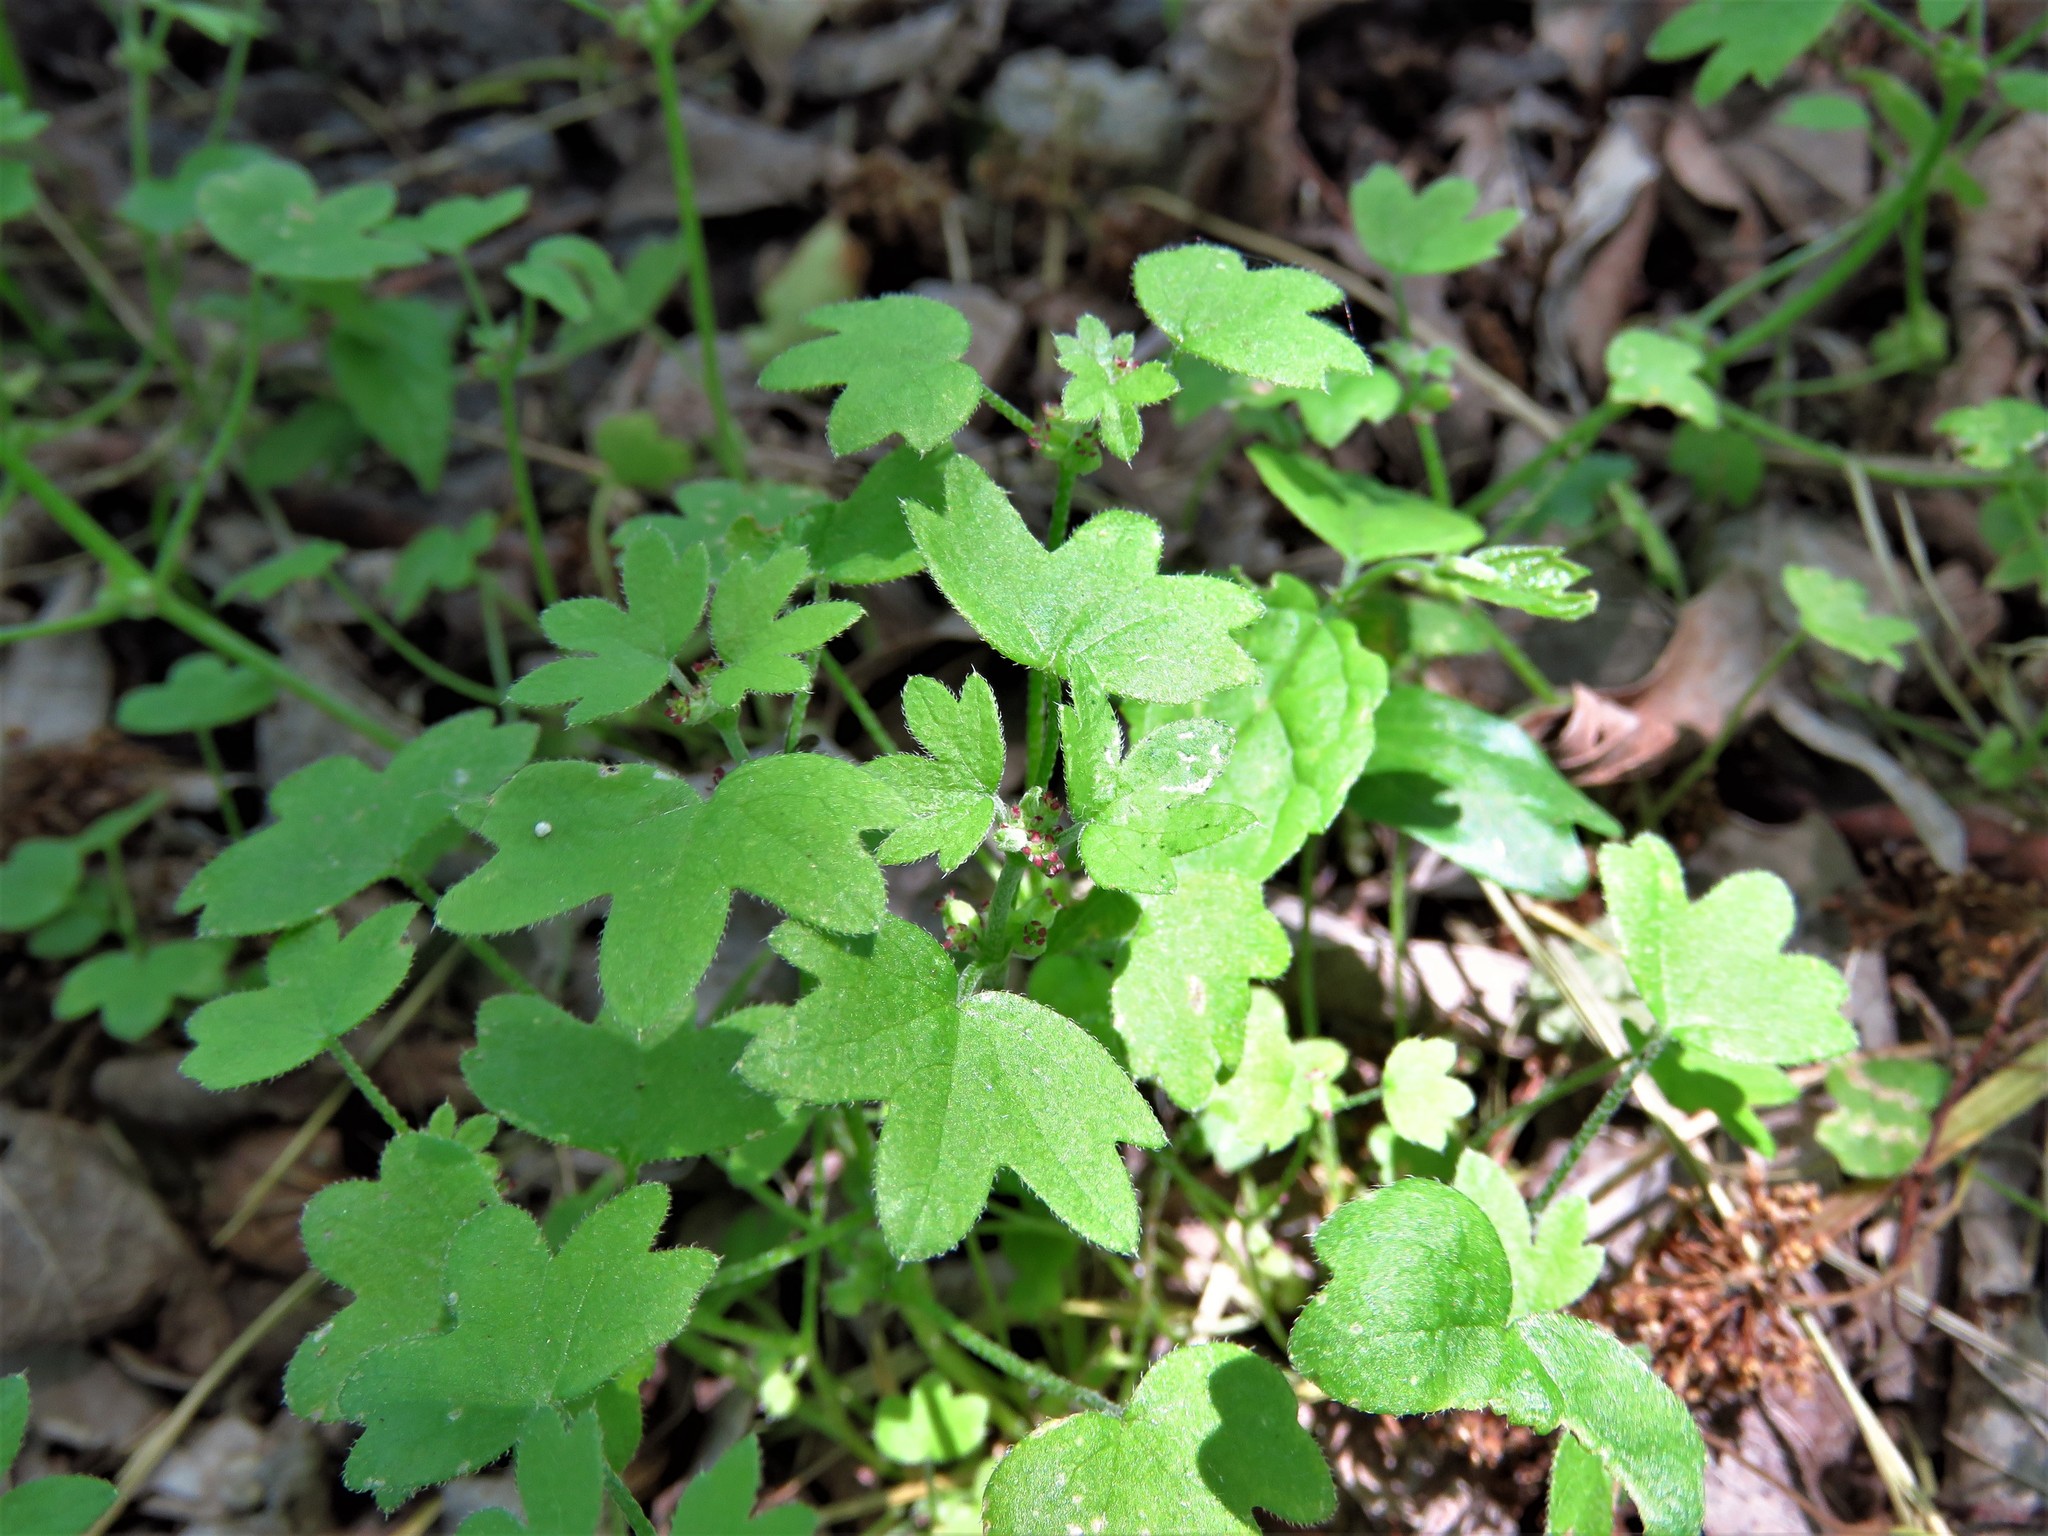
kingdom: Plantae
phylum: Tracheophyta
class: Magnoliopsida
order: Apiales
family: Apiaceae
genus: Bowlesia
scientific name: Bowlesia incana
